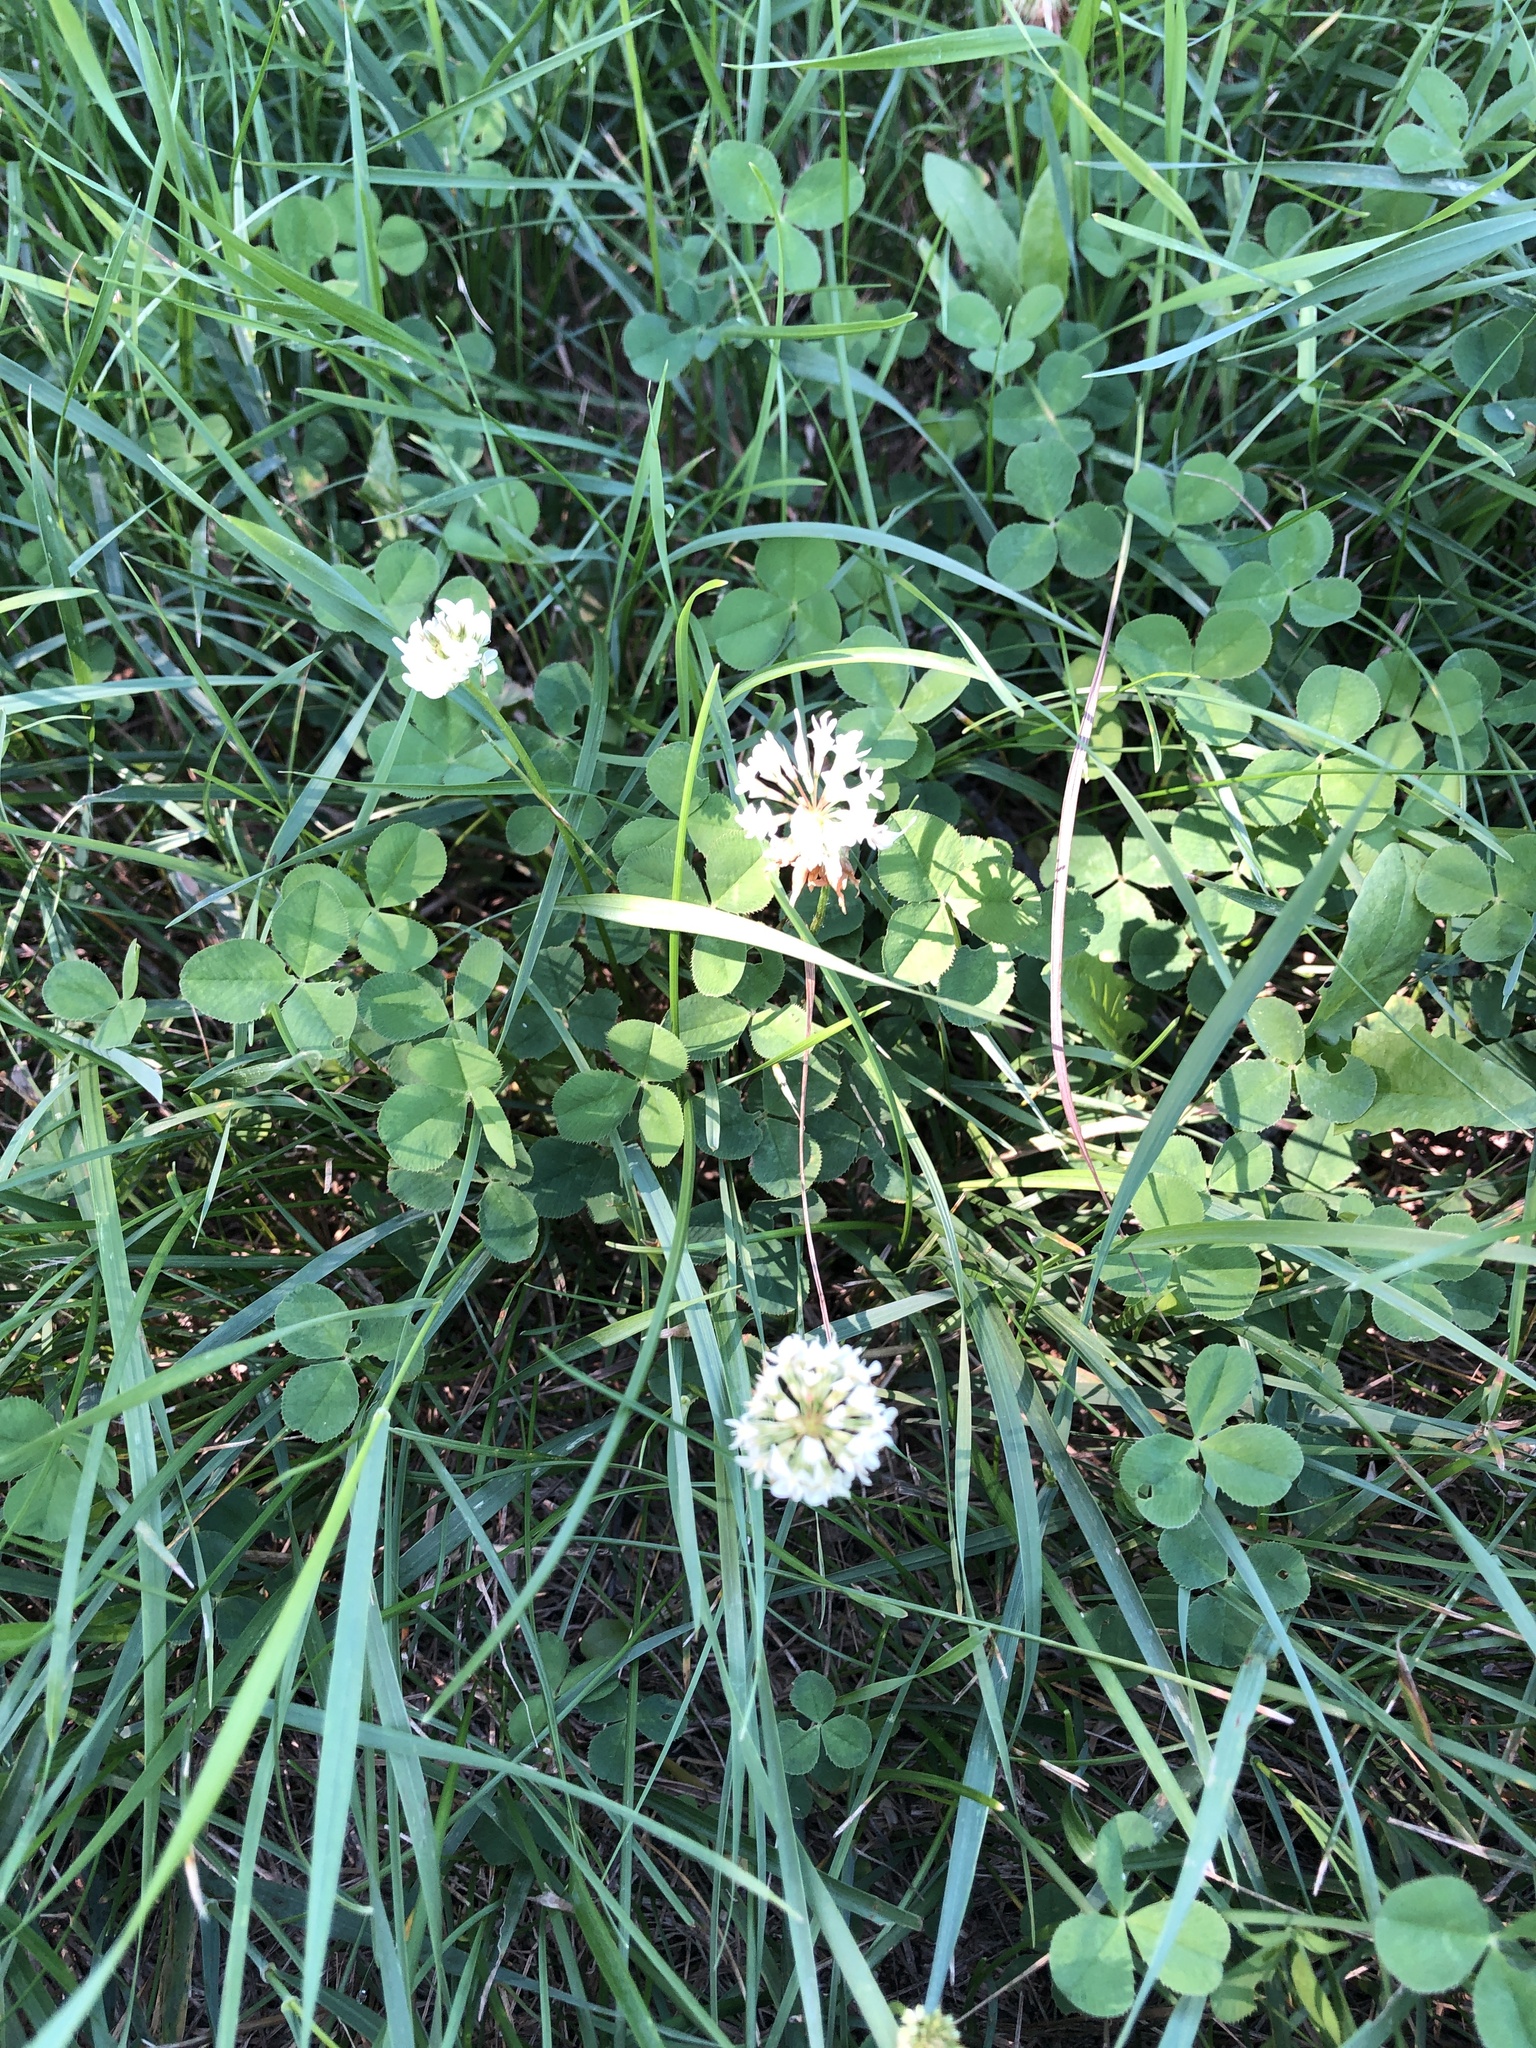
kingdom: Plantae
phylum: Tracheophyta
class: Magnoliopsida
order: Fabales
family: Fabaceae
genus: Trifolium
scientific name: Trifolium repens
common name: White clover
